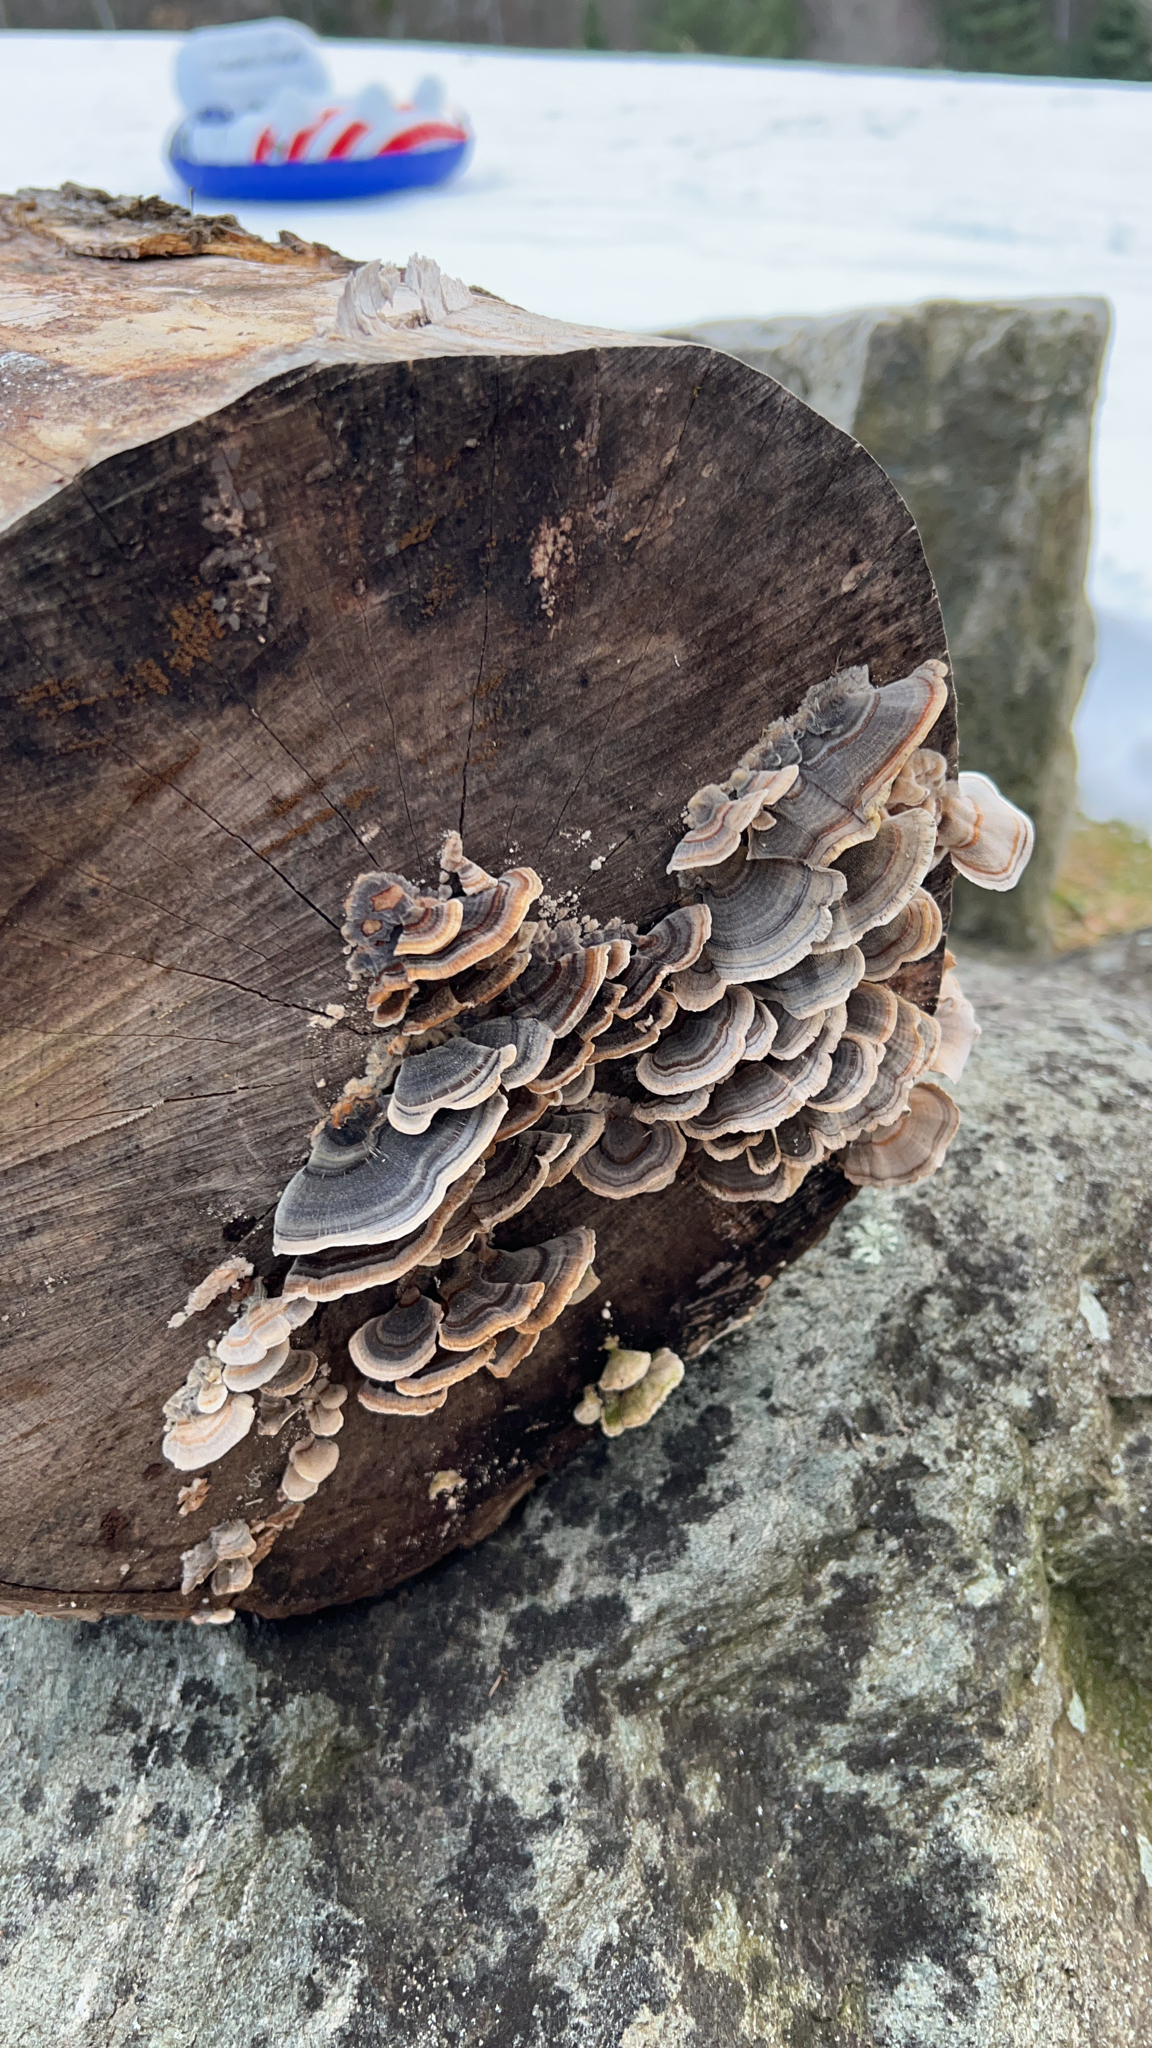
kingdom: Fungi
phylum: Basidiomycota
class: Agaricomycetes
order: Polyporales
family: Polyporaceae
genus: Trametes
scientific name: Trametes versicolor
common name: Turkeytail
